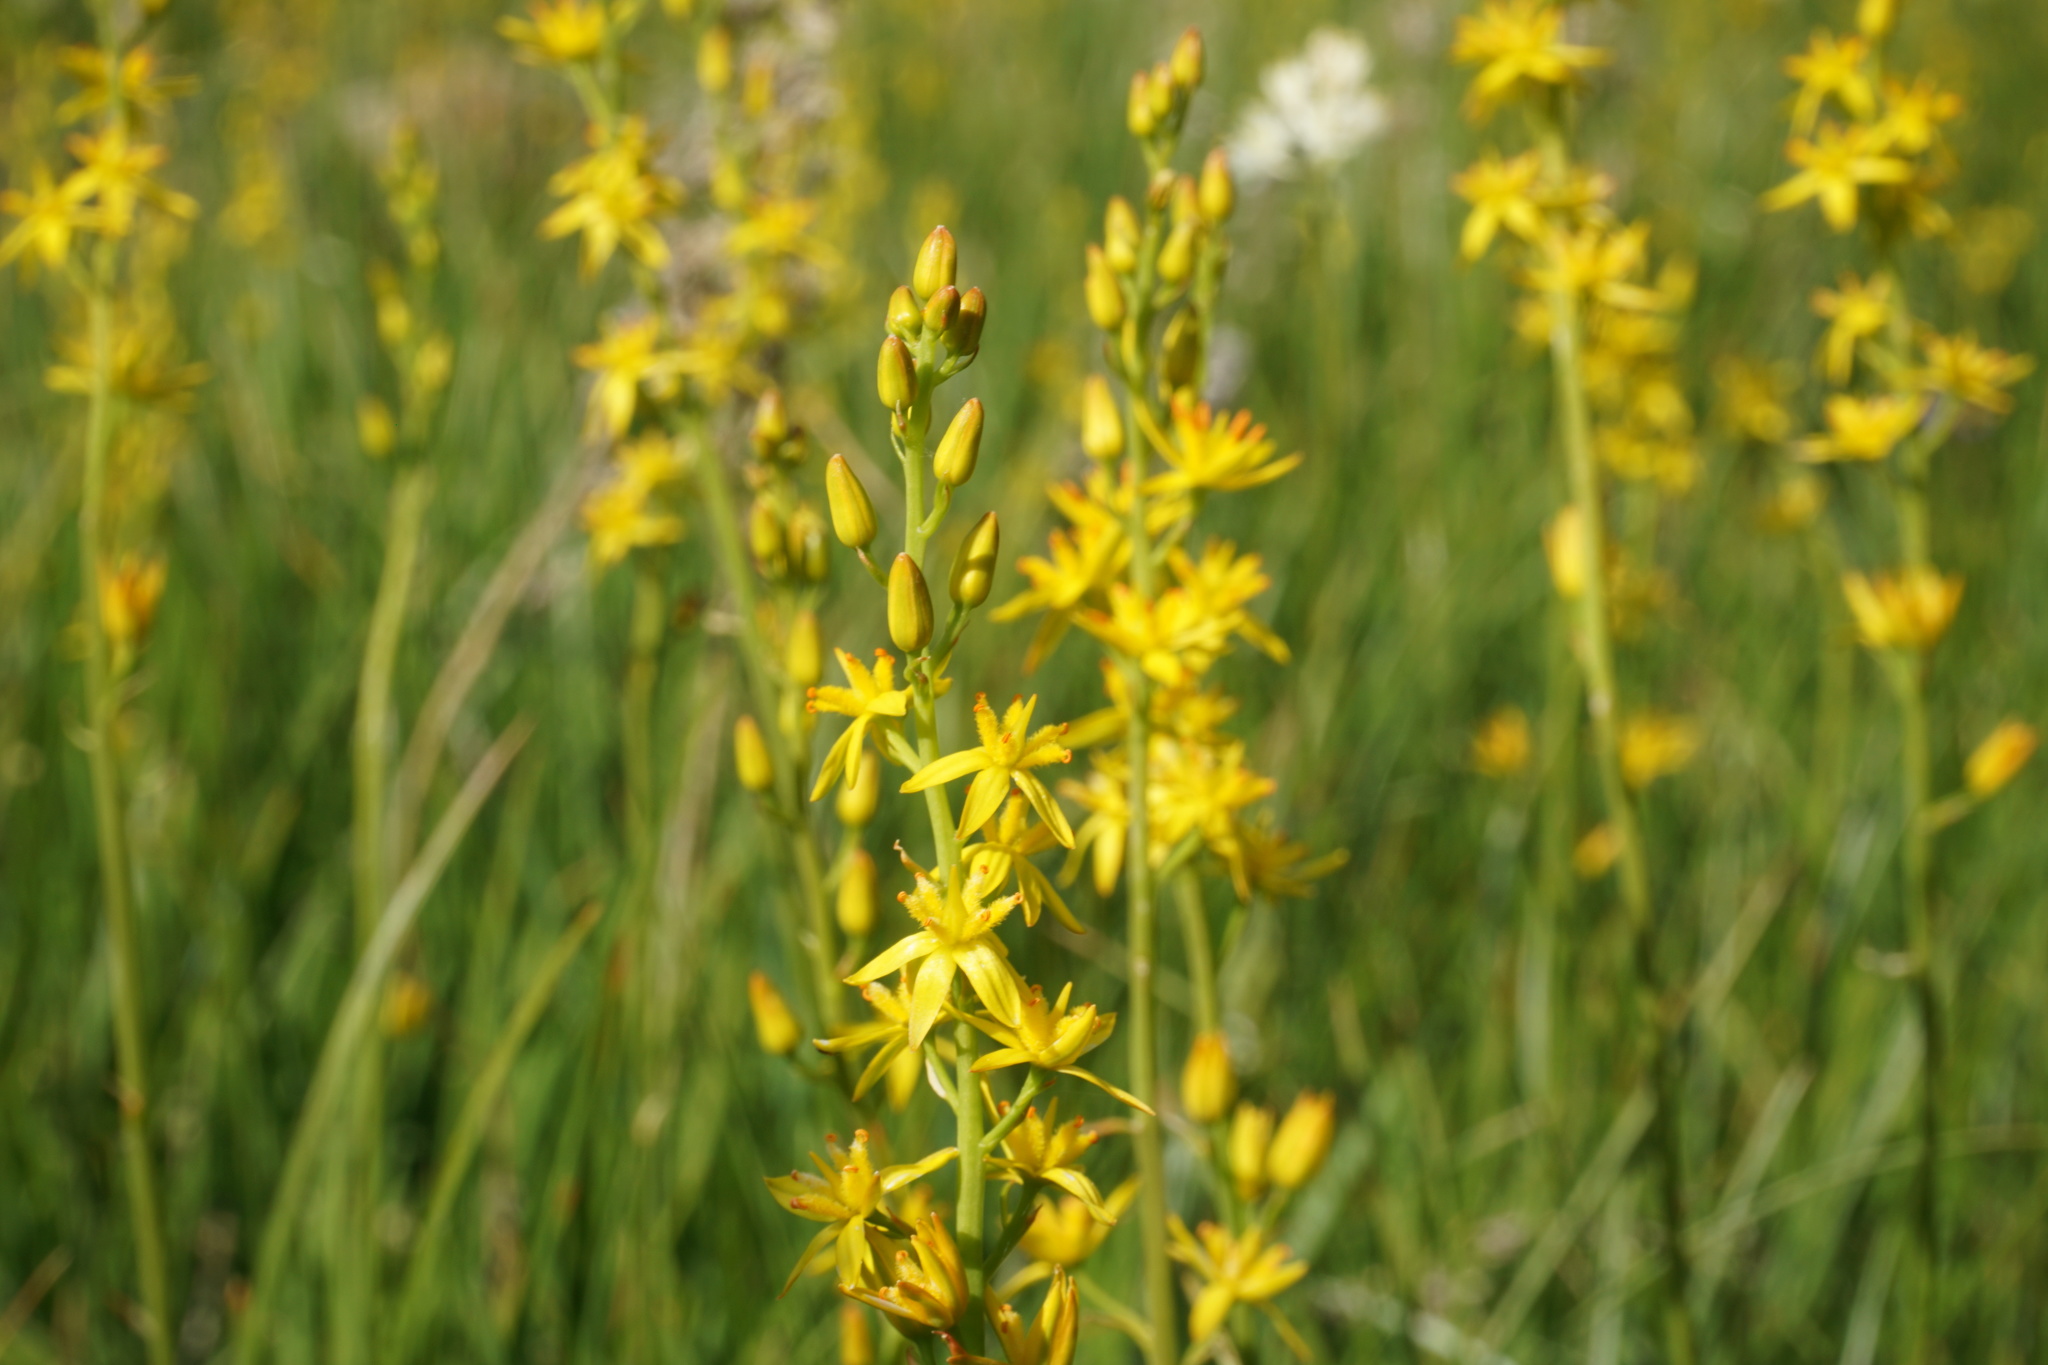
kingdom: Plantae
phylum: Tracheophyta
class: Liliopsida
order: Dioscoreales
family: Nartheciaceae
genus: Narthecium
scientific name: Narthecium californicum
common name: California bog-asphodel
